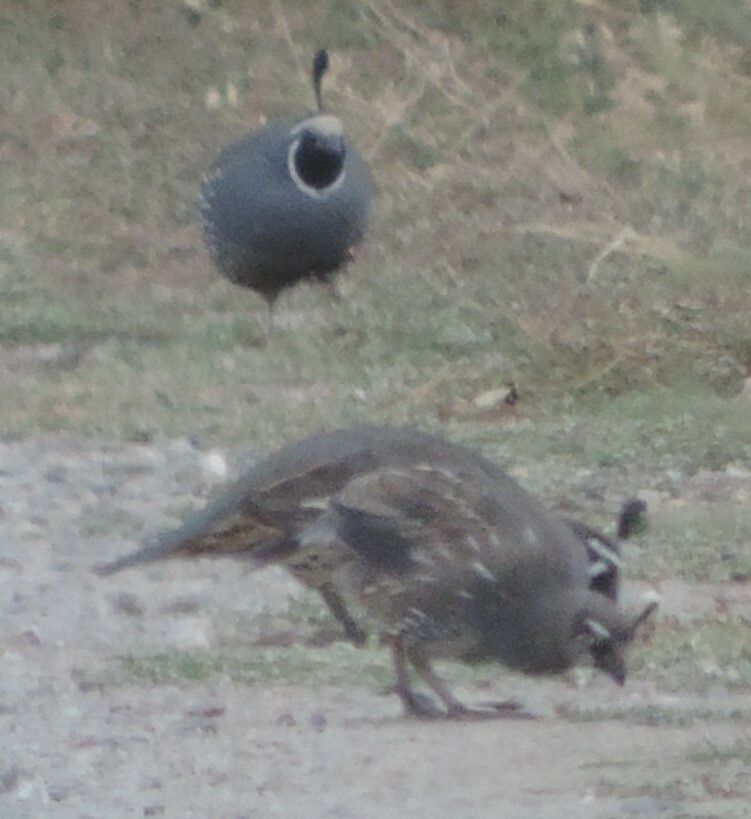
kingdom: Animalia
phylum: Chordata
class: Aves
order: Galliformes
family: Odontophoridae
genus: Callipepla
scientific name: Callipepla californica
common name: California quail
